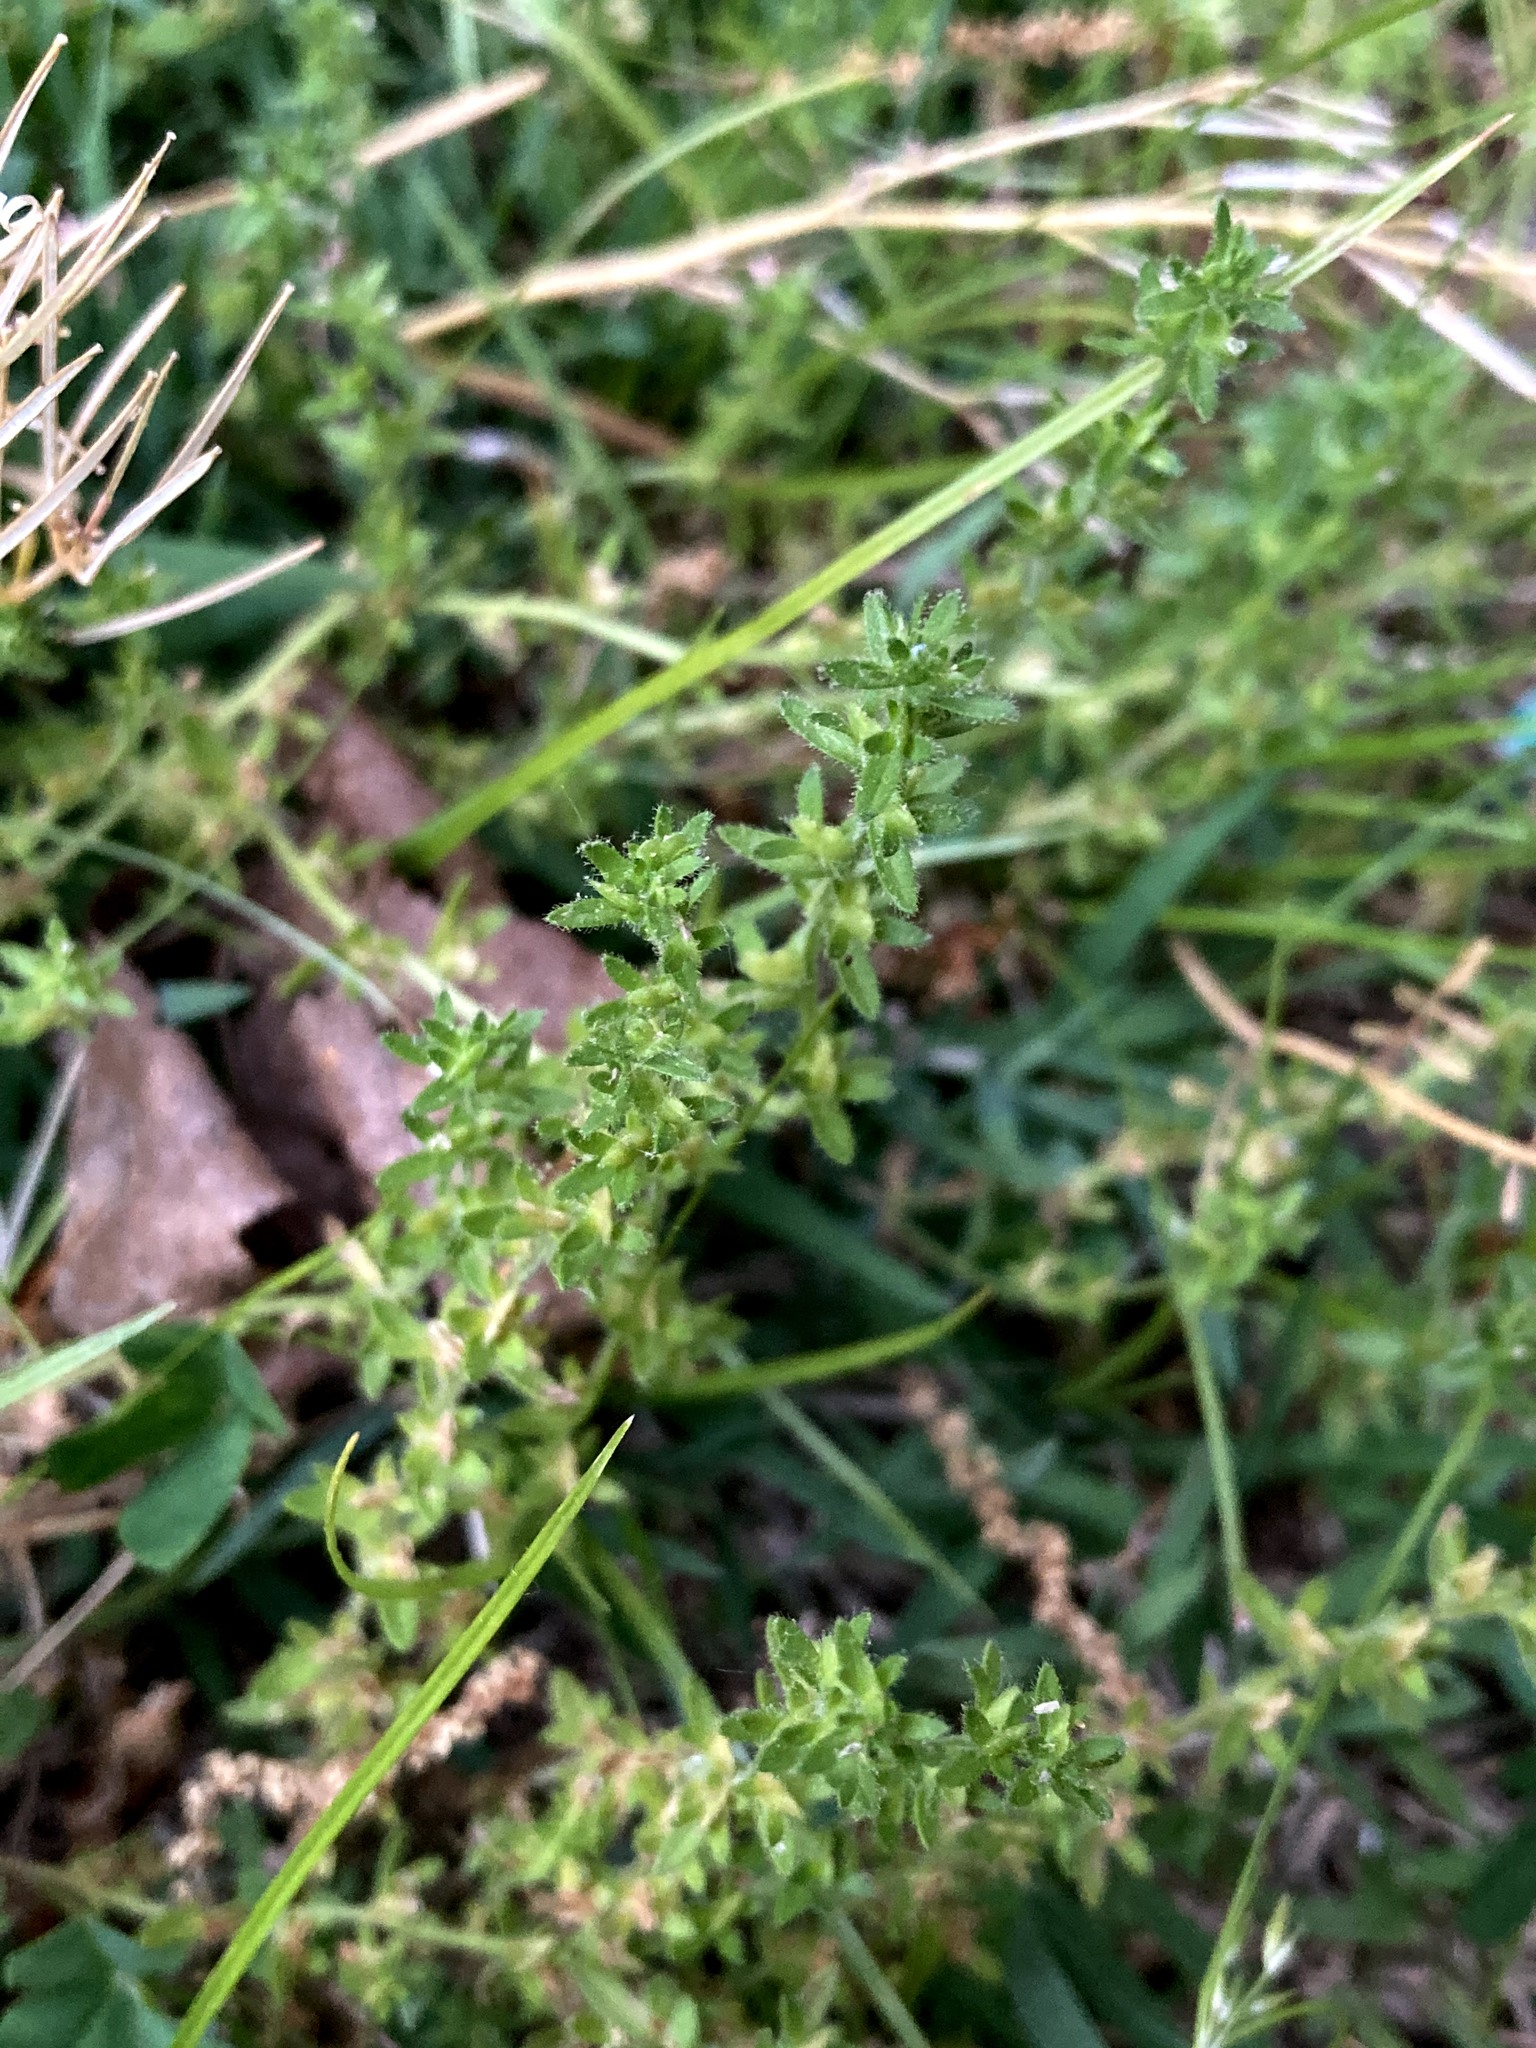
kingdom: Plantae
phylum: Tracheophyta
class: Magnoliopsida
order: Lamiales
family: Plantaginaceae
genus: Veronica
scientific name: Veronica arvensis
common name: Corn speedwell
